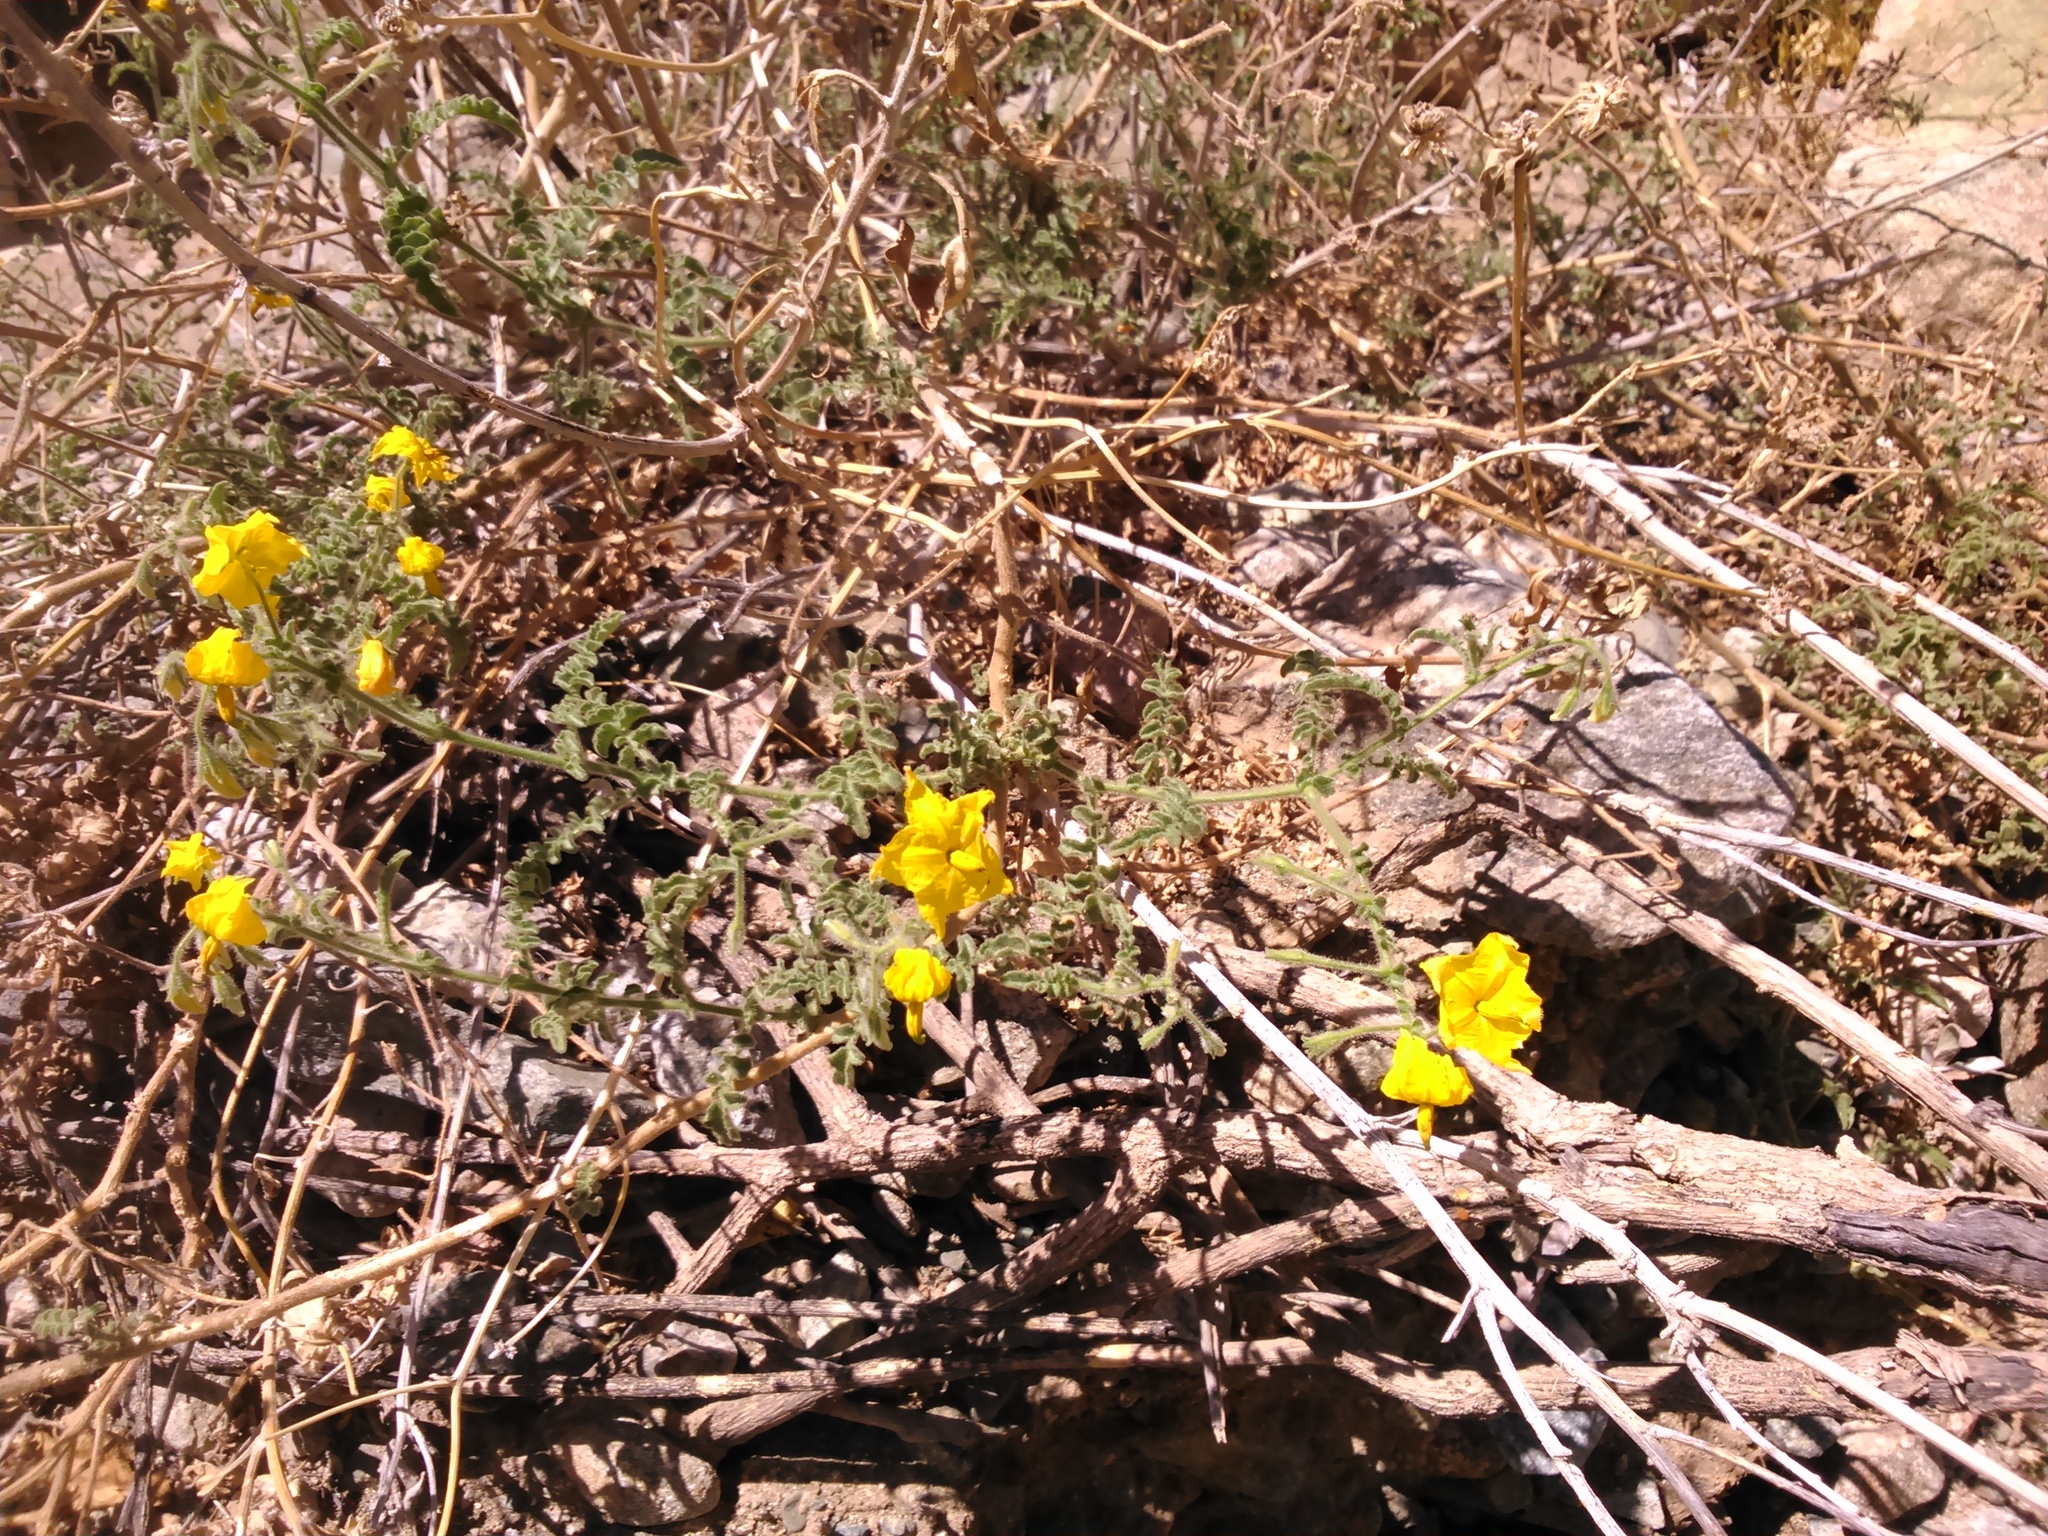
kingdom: Plantae
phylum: Tracheophyta
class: Magnoliopsida
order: Solanales
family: Solanaceae
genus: Solanum
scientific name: Solanum peruvianum
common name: Peruvian nightshade
